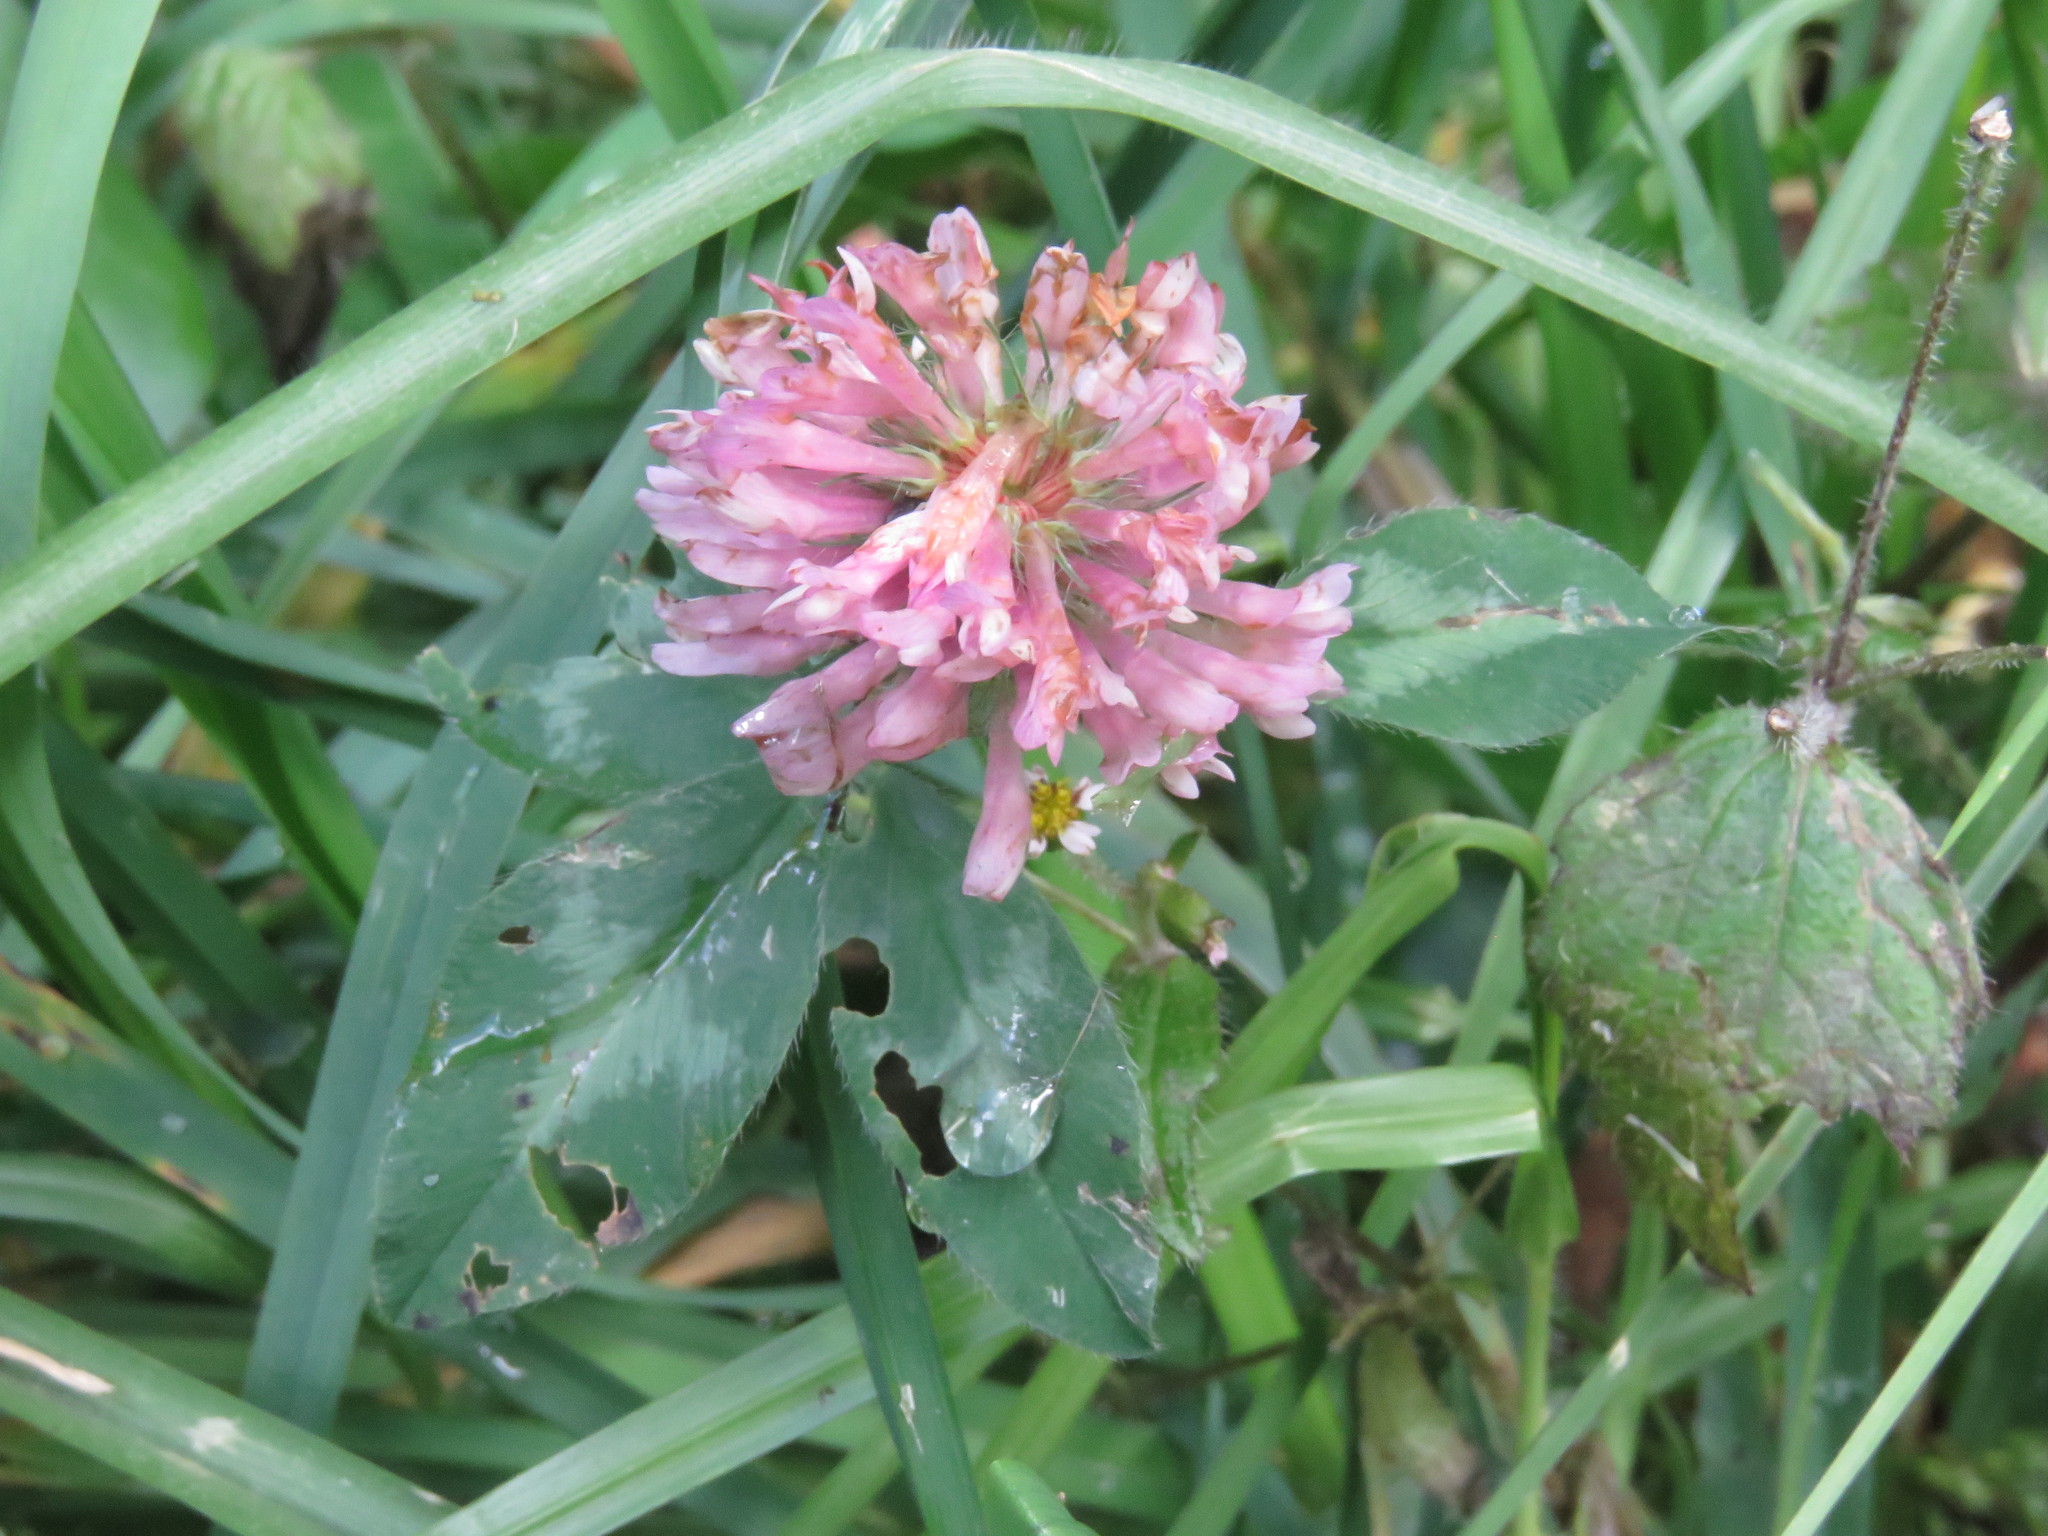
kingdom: Plantae
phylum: Tracheophyta
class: Magnoliopsida
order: Fabales
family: Fabaceae
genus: Trifolium
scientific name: Trifolium pratense
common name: Red clover
